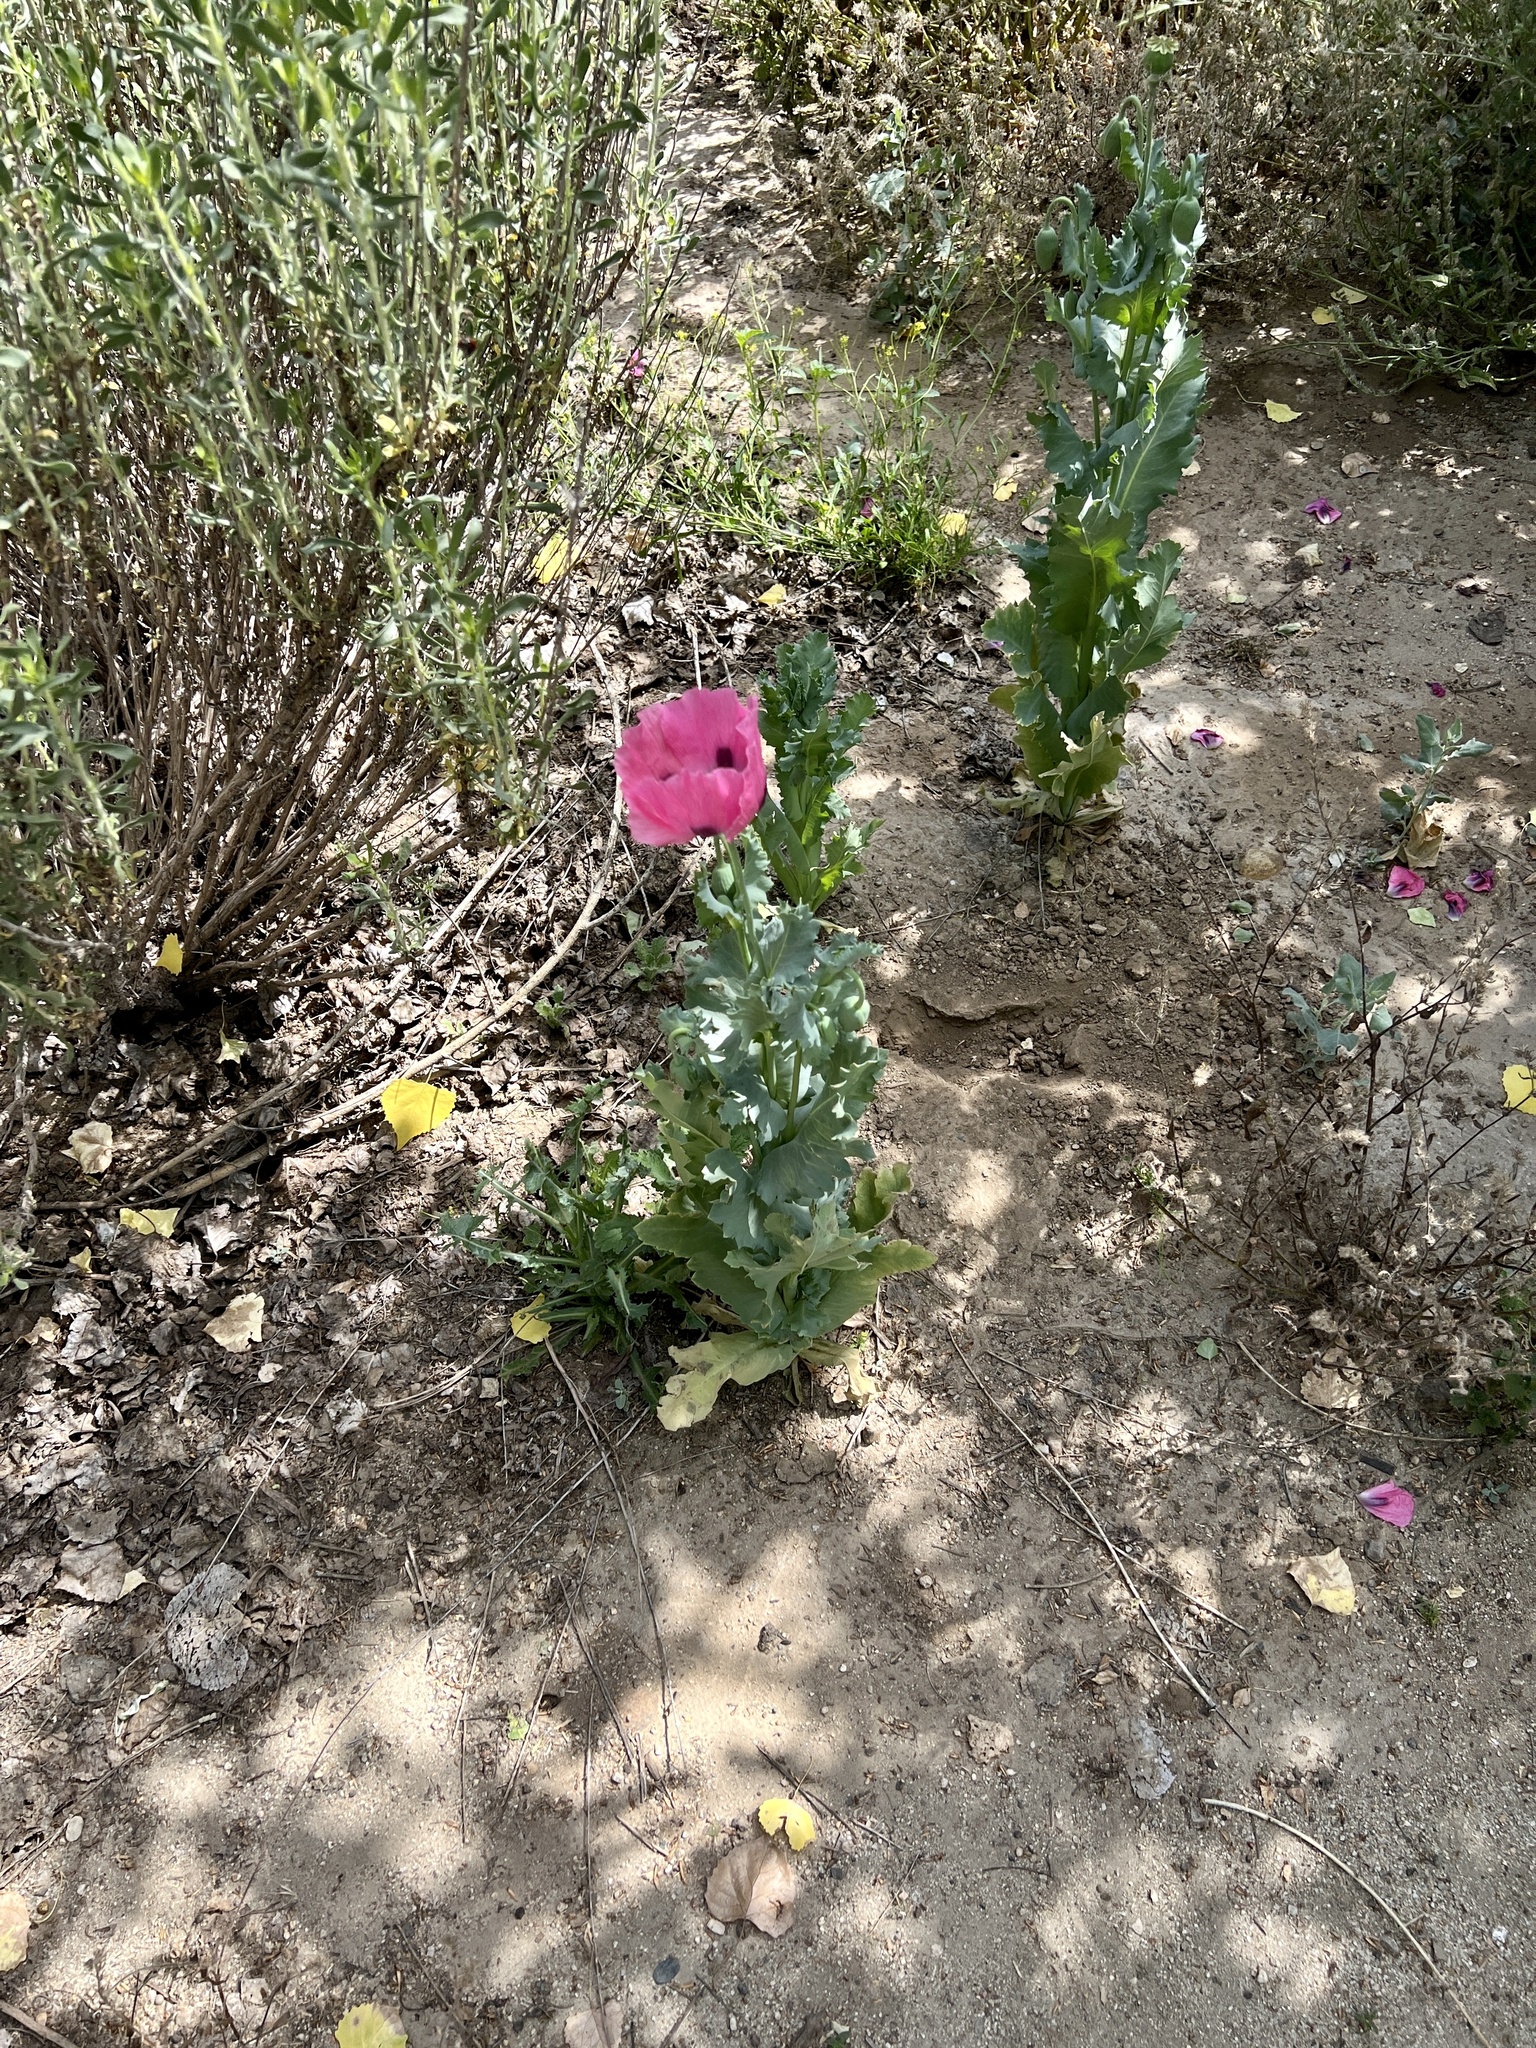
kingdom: Plantae
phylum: Tracheophyta
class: Magnoliopsida
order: Ranunculales
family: Papaveraceae
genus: Papaver
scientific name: Papaver somniferum
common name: Opium poppy
